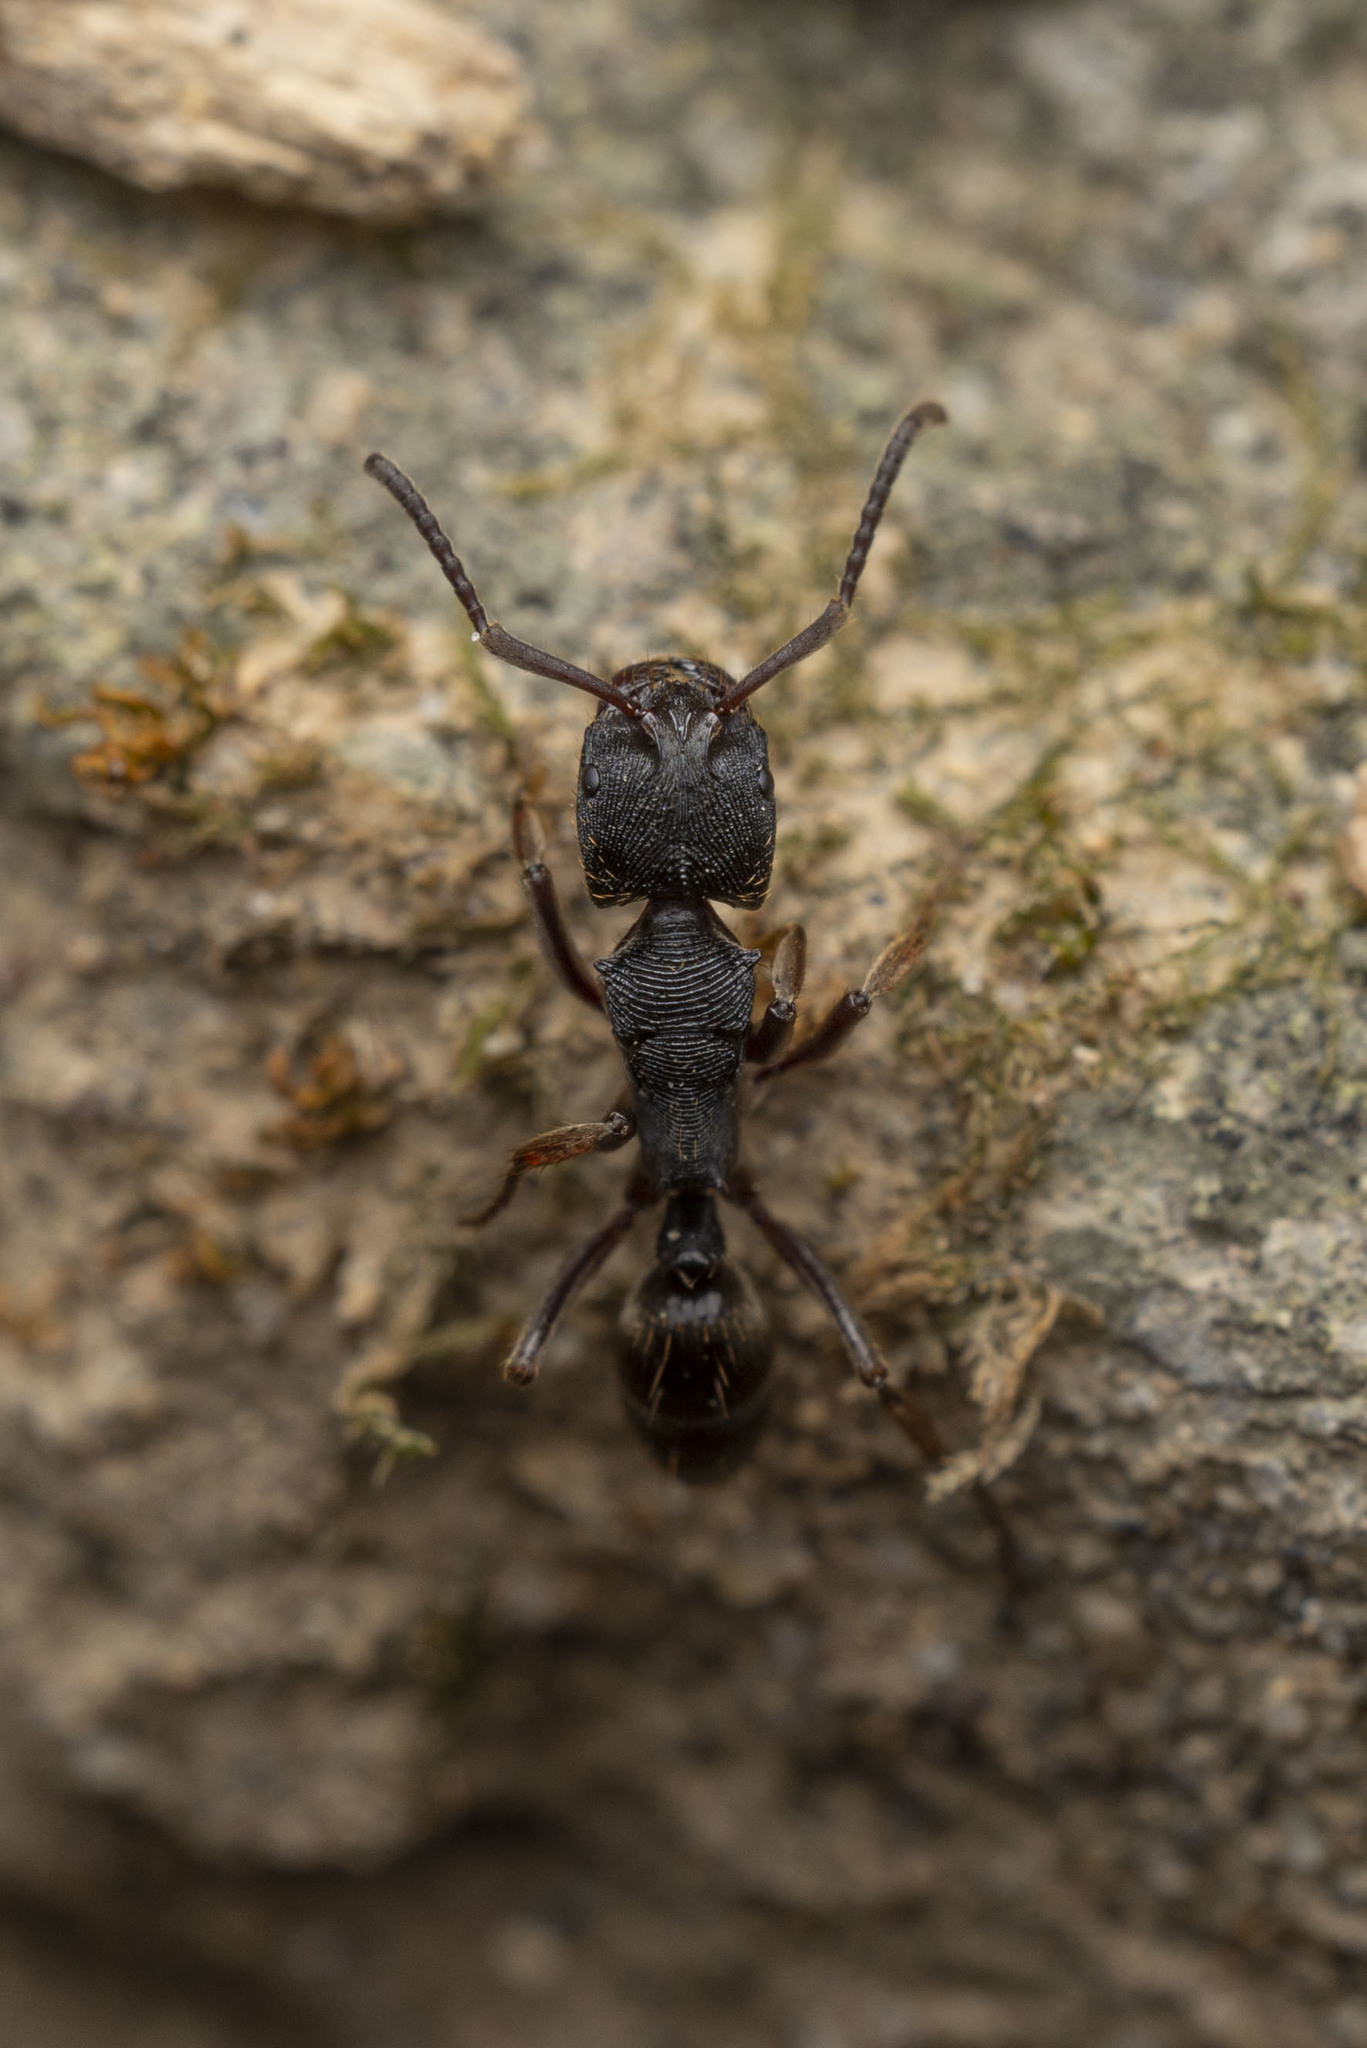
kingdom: Animalia
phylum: Arthropoda
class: Insecta
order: Hymenoptera
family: Formicidae
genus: Odontoponera
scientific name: Odontoponera denticulata
